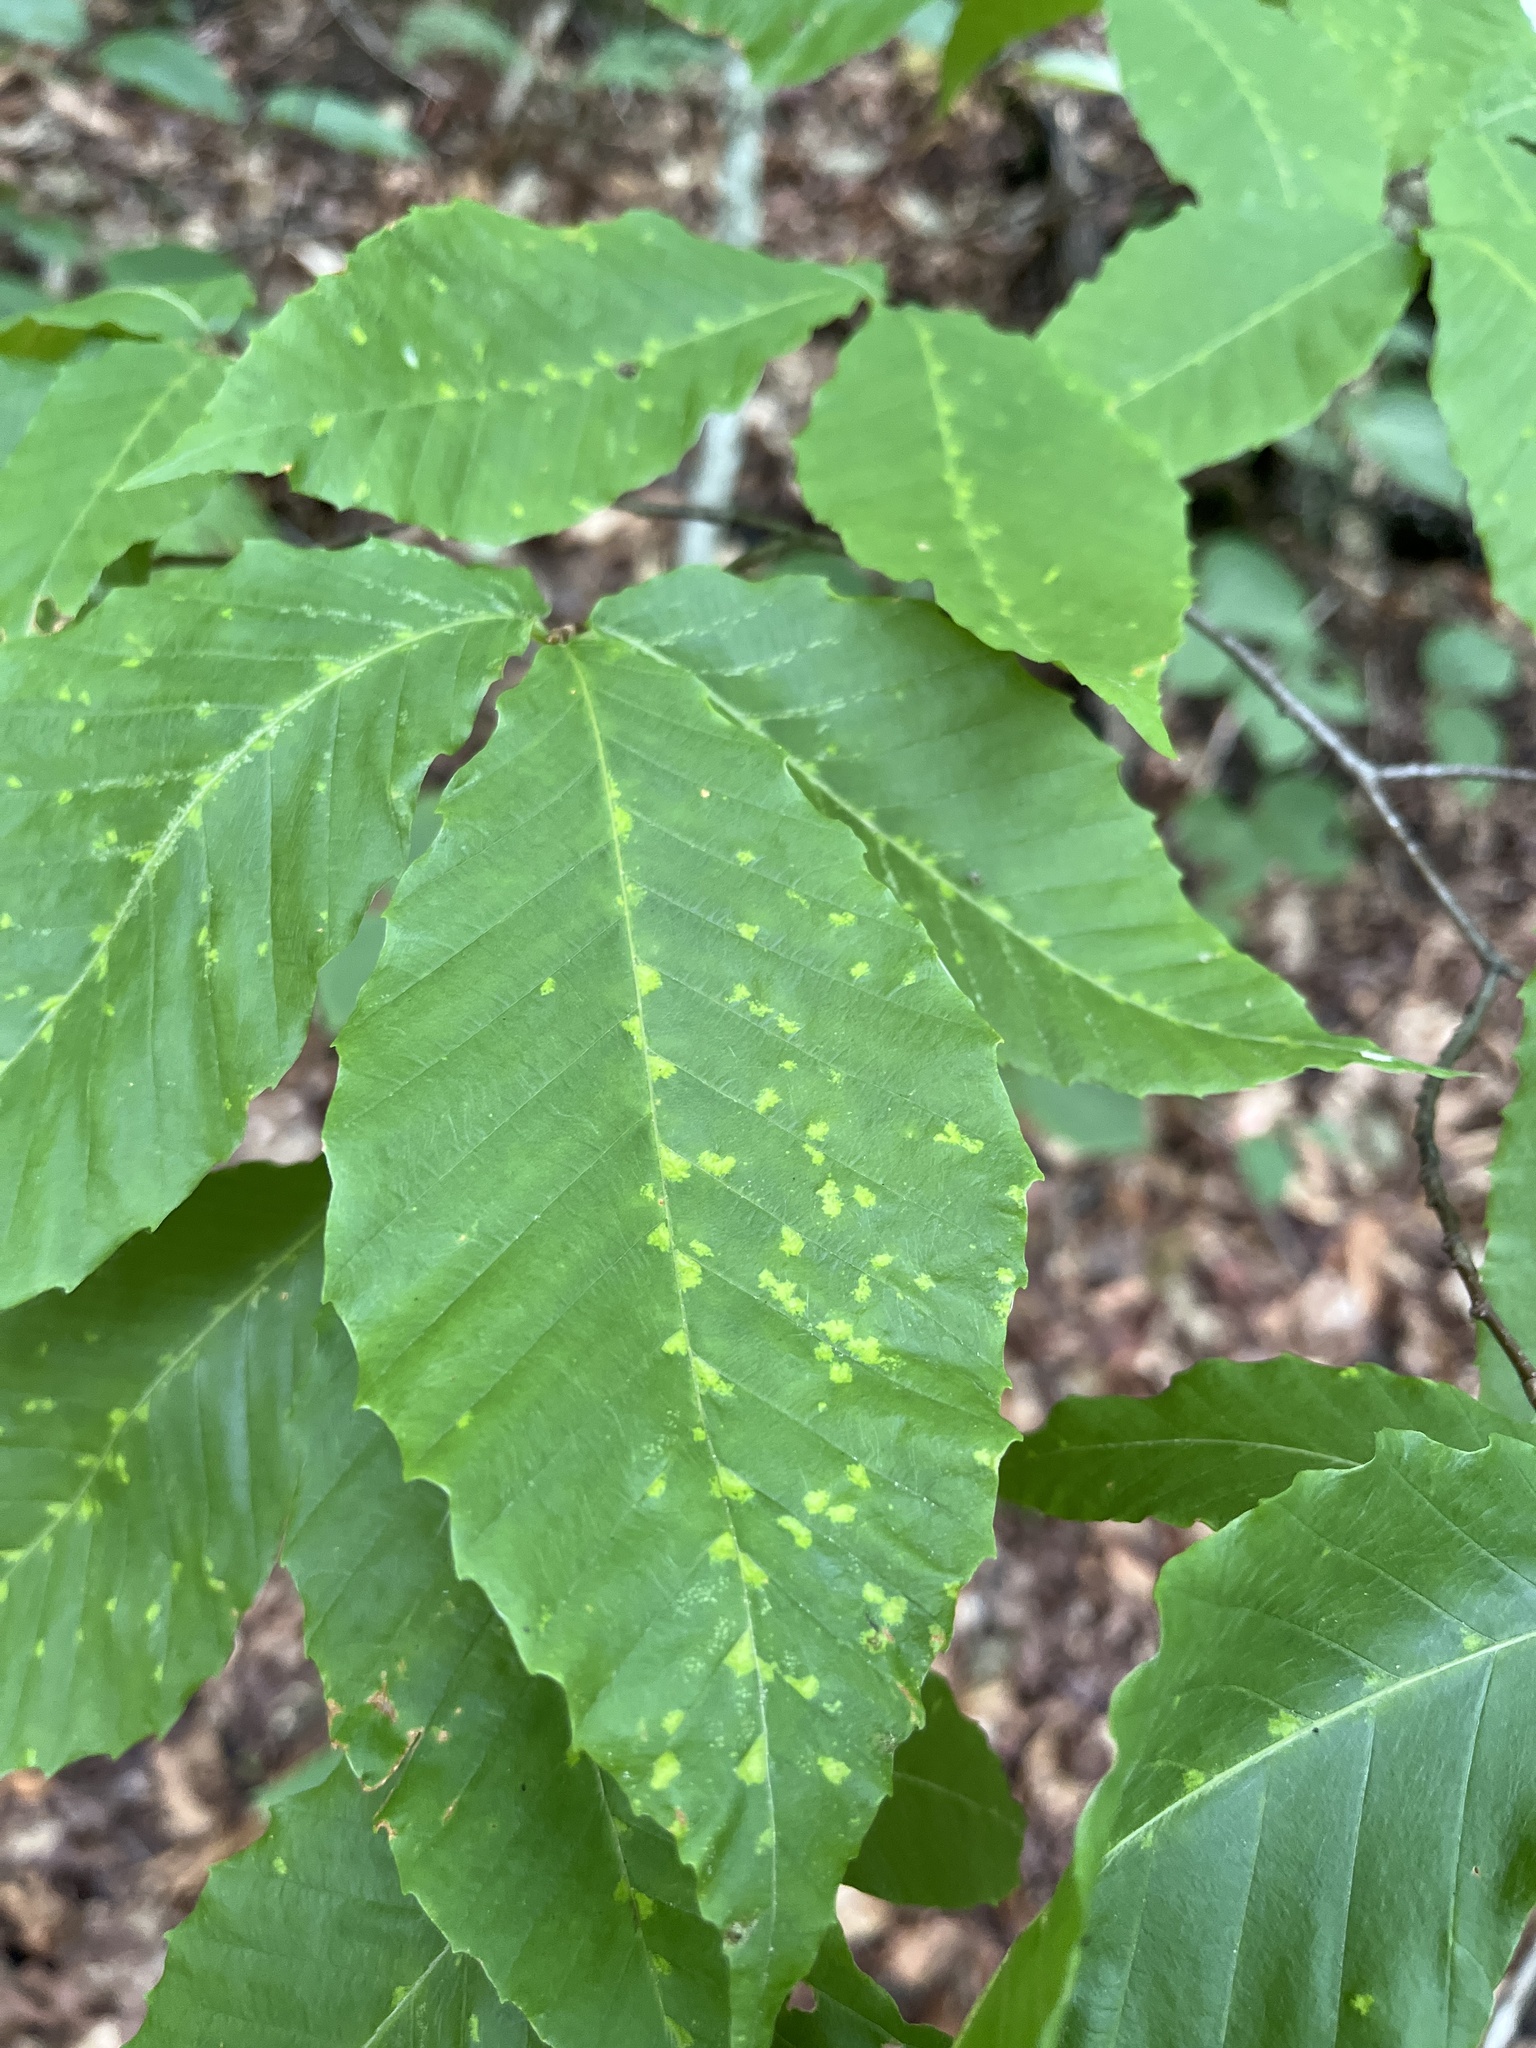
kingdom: Animalia
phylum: Arthropoda
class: Arachnida
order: Trombidiformes
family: Eriophyidae
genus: Acalitus
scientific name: Acalitus
